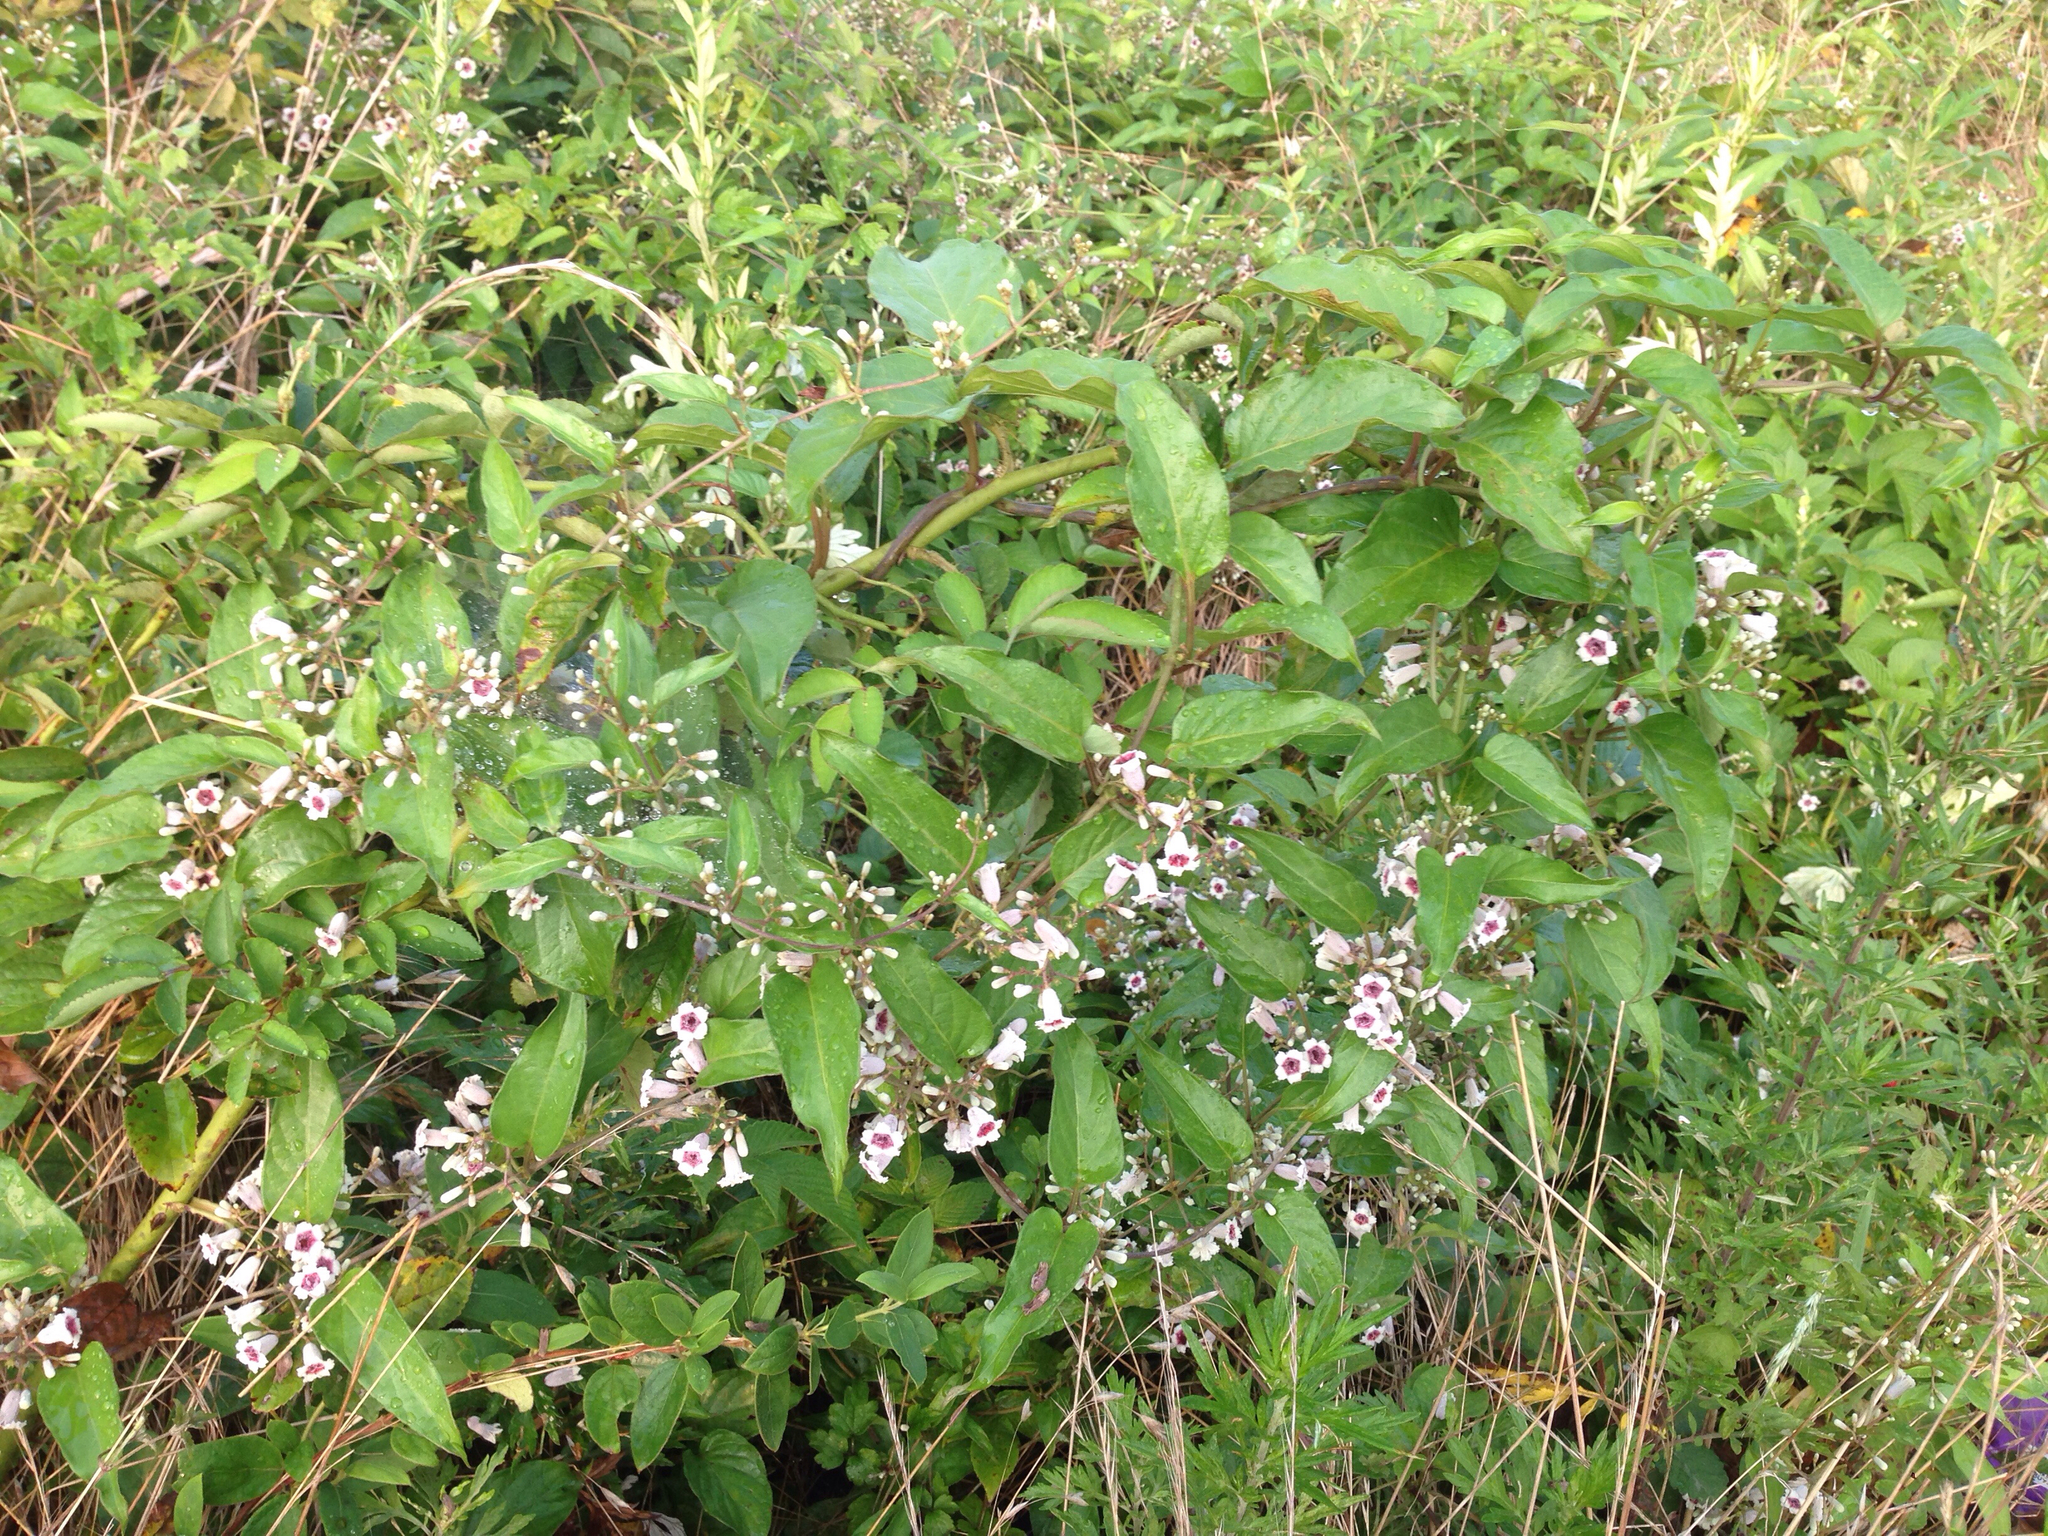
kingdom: Plantae
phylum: Tracheophyta
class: Magnoliopsida
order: Gentianales
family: Rubiaceae
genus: Paederia
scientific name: Paederia foetida
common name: Stinkvine
